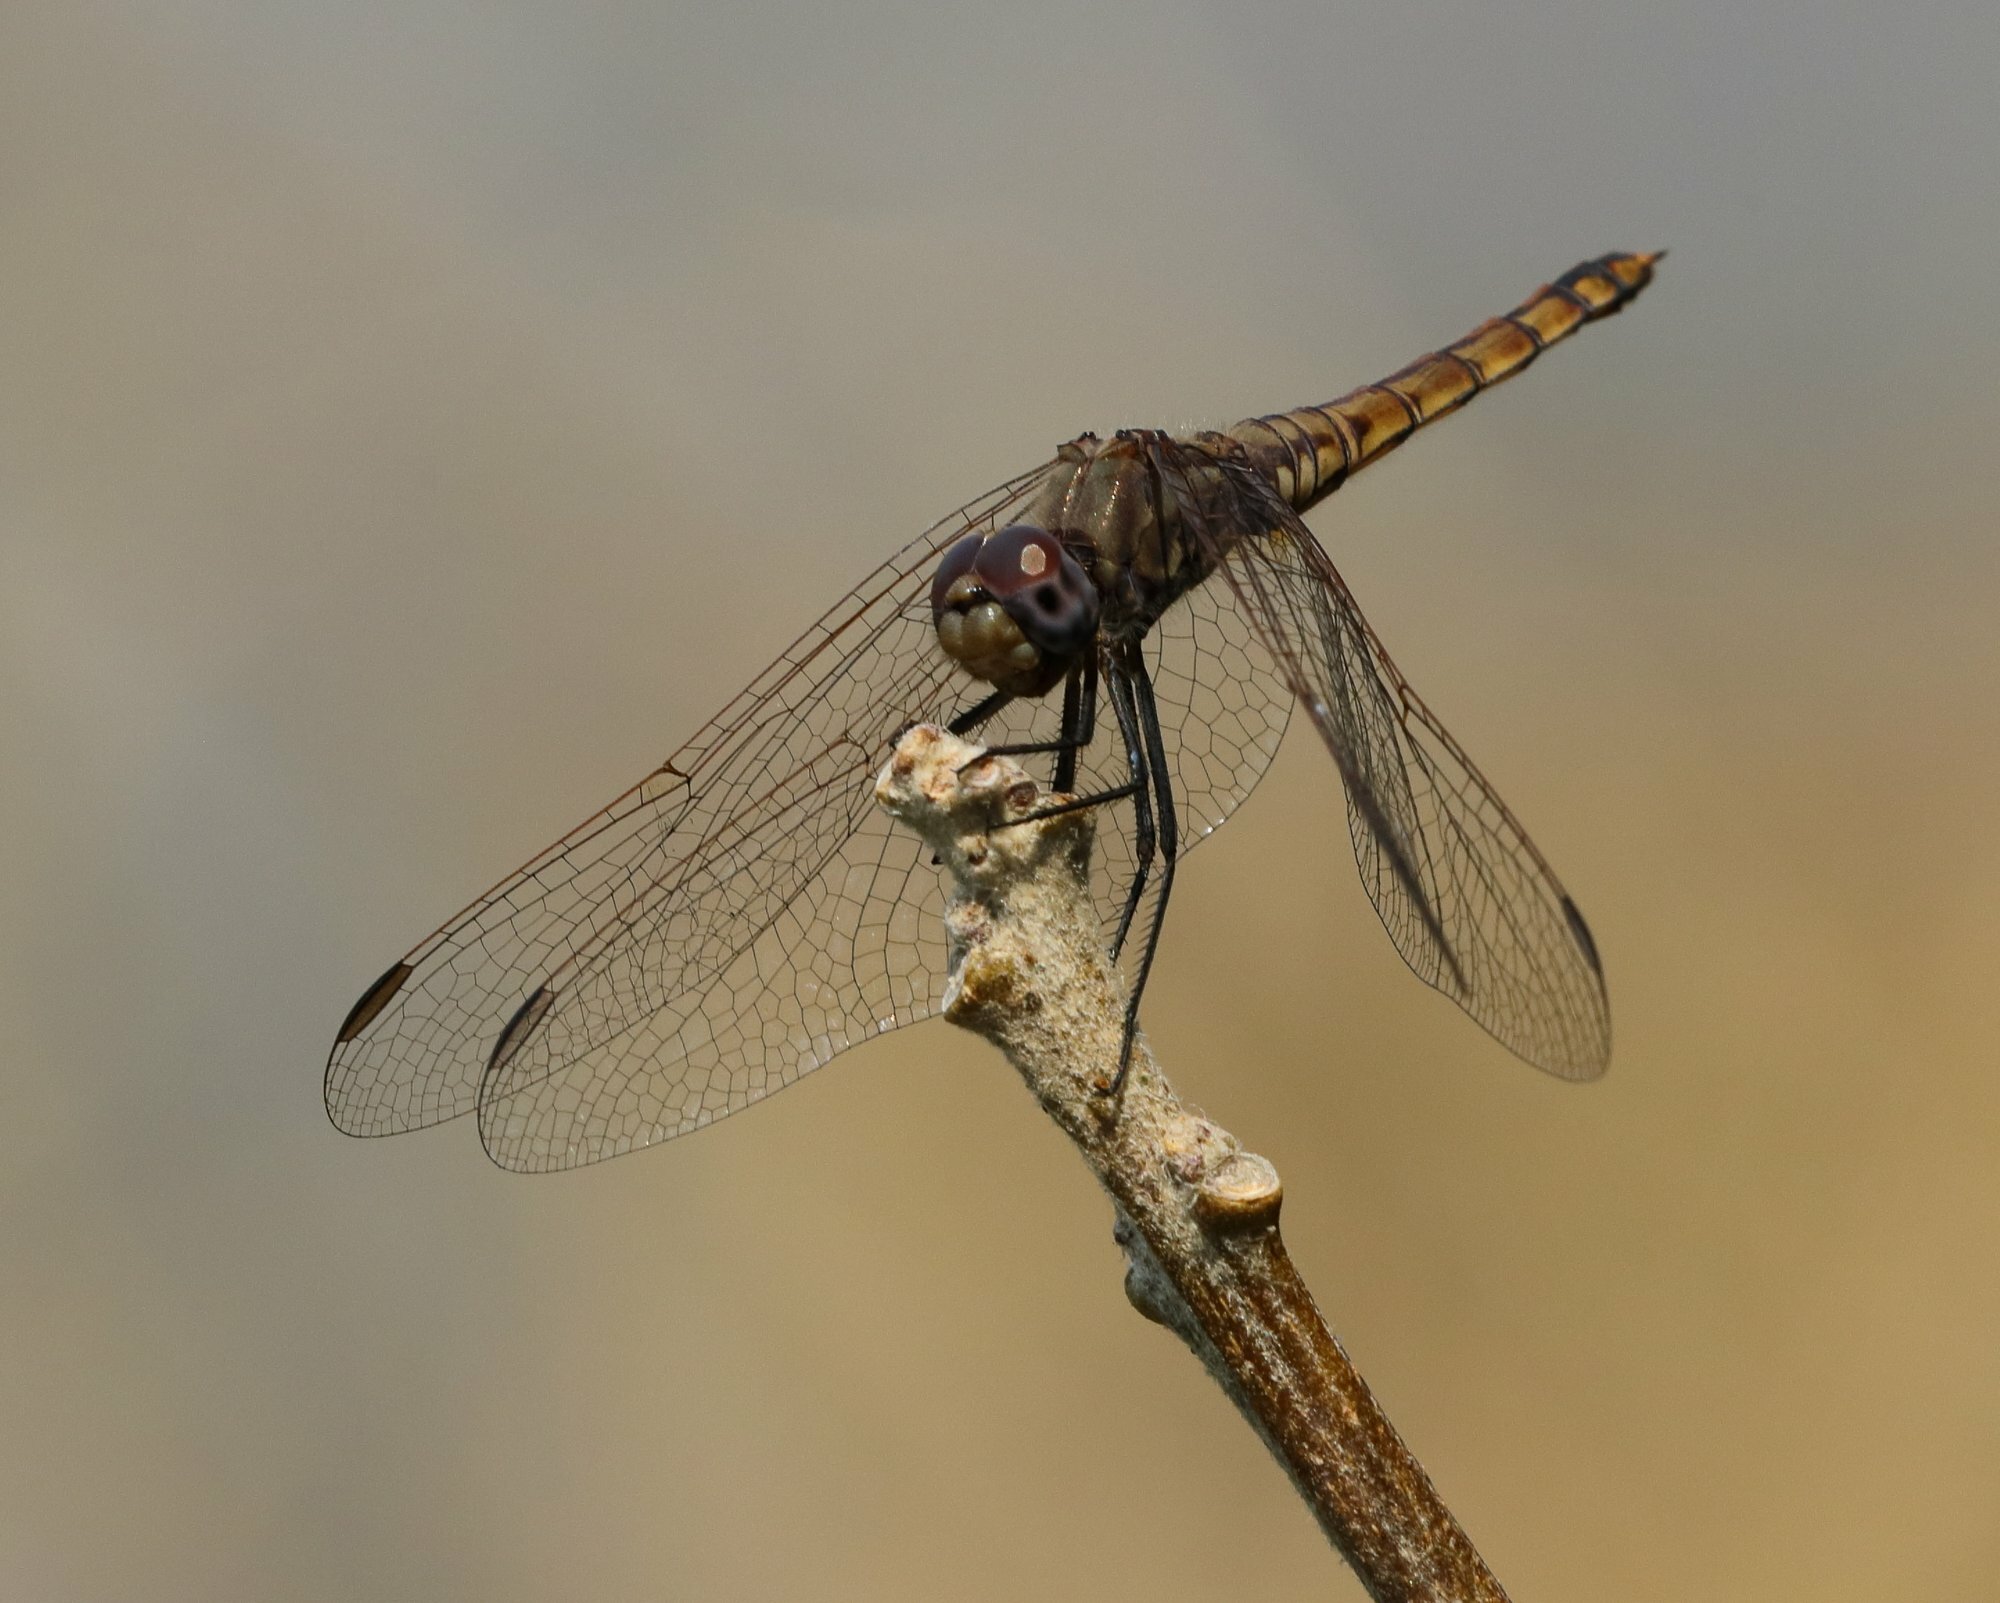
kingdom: Animalia
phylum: Arthropoda
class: Insecta
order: Odonata
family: Libellulidae
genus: Trithemis
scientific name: Trithemis annulata
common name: Violet dropwing
